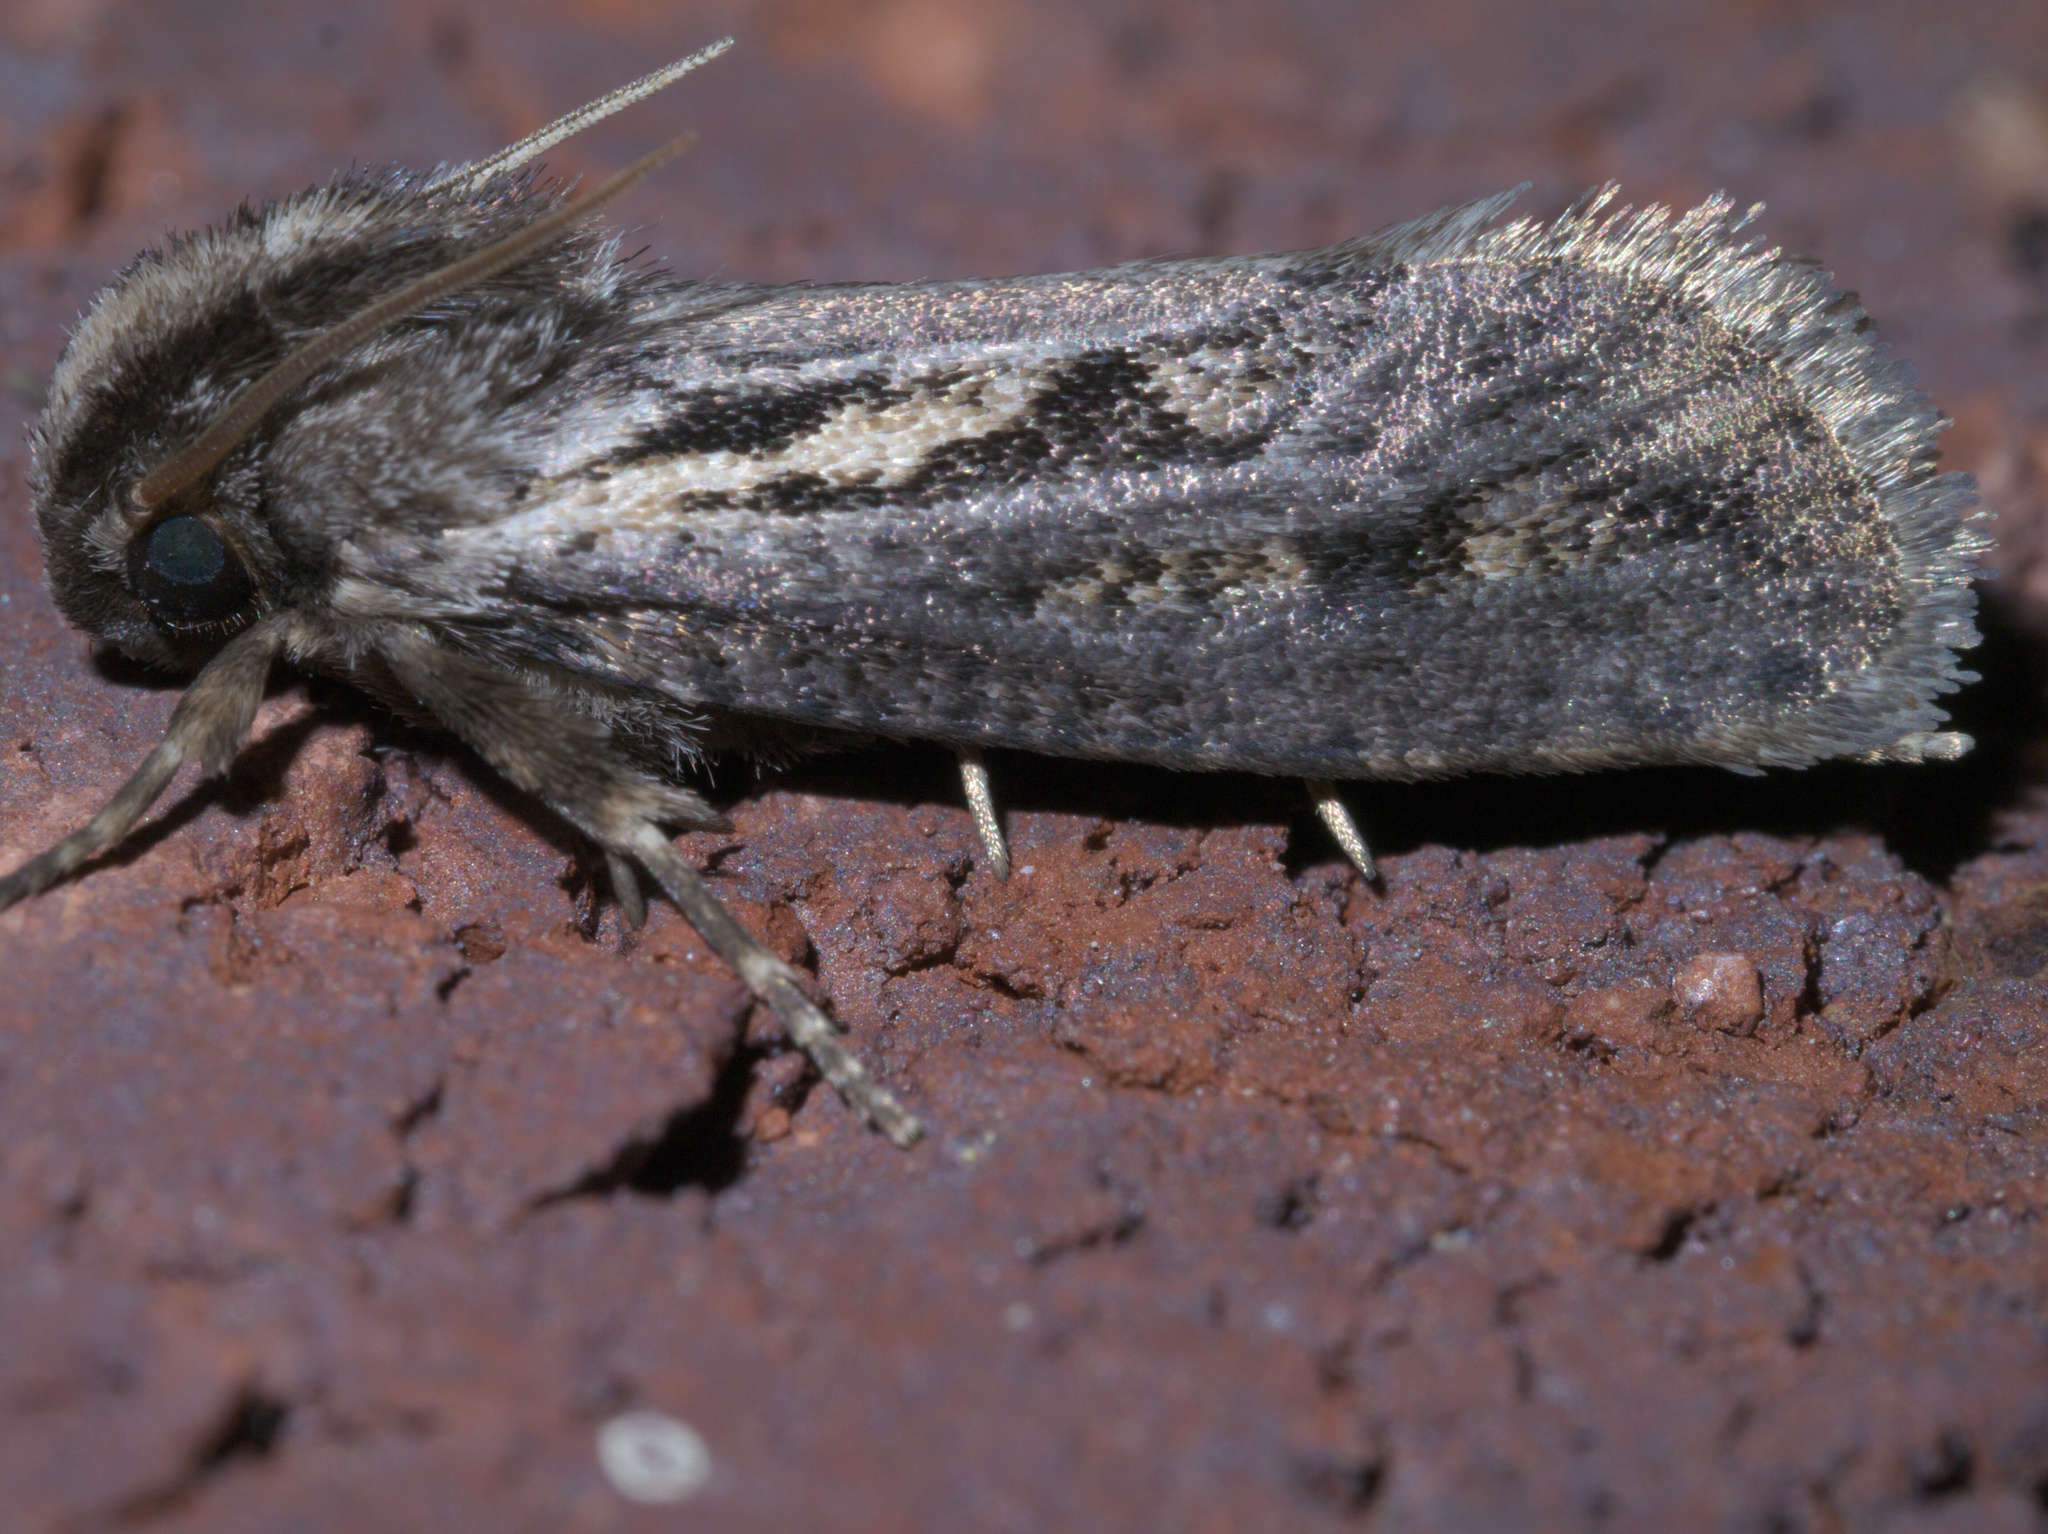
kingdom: Animalia
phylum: Arthropoda
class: Insecta
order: Lepidoptera
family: Tineidae
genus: Acrolophus
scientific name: Acrolophus popeanella
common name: Clemens' grass tubeworm moth
